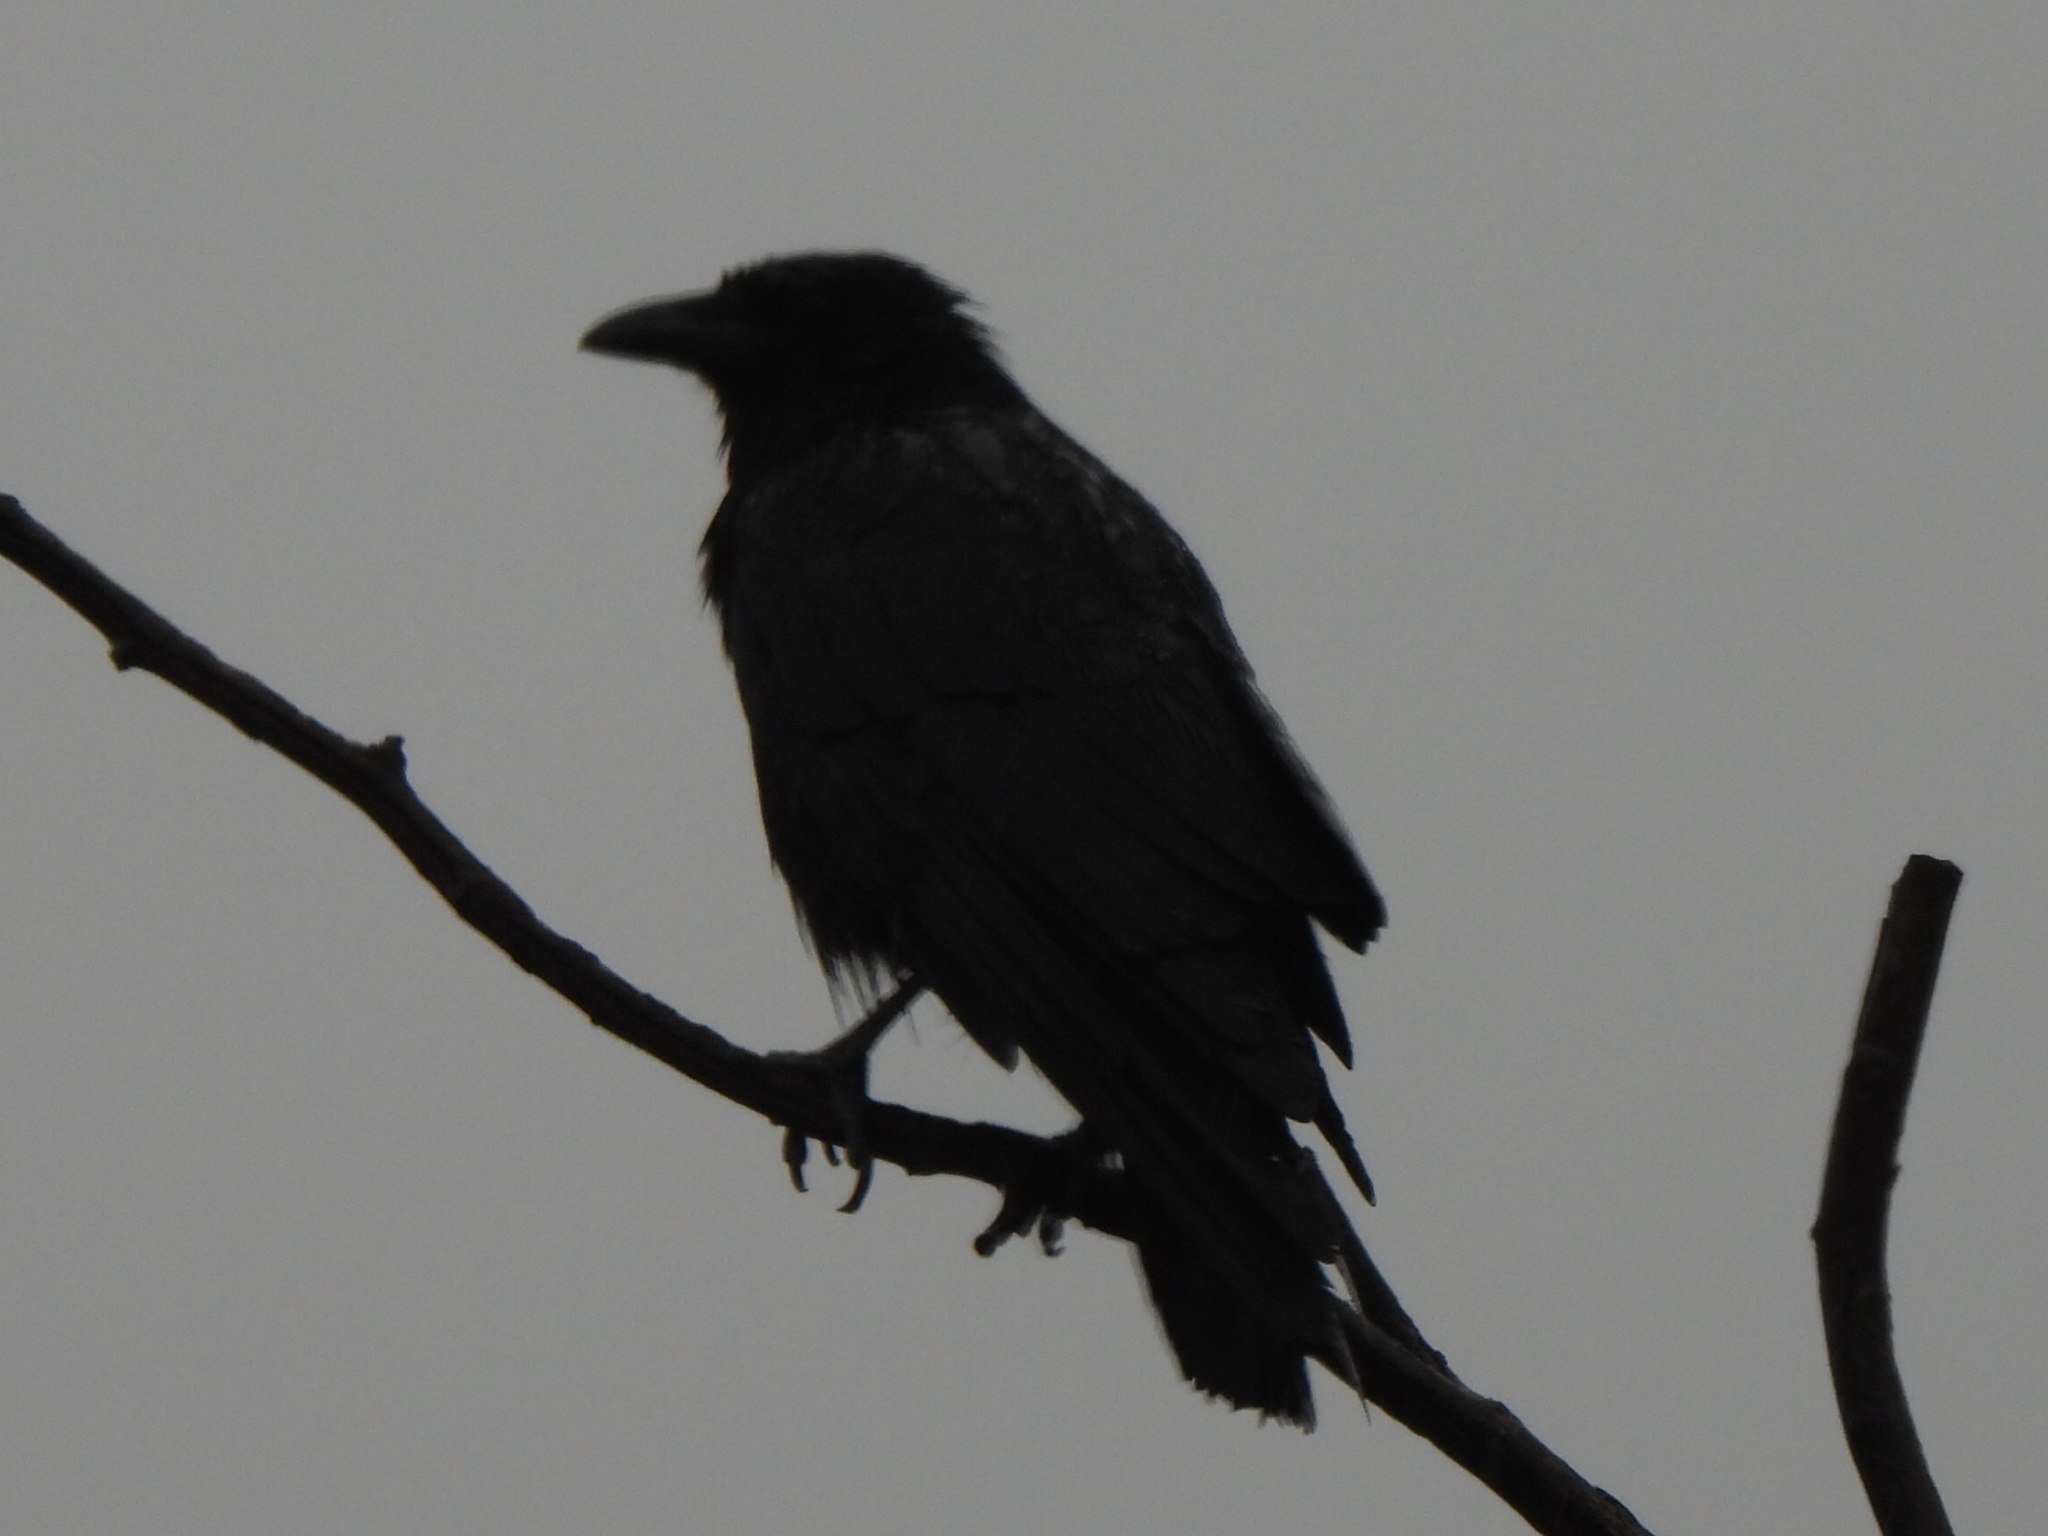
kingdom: Animalia
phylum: Chordata
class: Aves
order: Passeriformes
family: Corvidae
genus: Corvus
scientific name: Corvus brachyrhynchos
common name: American crow
